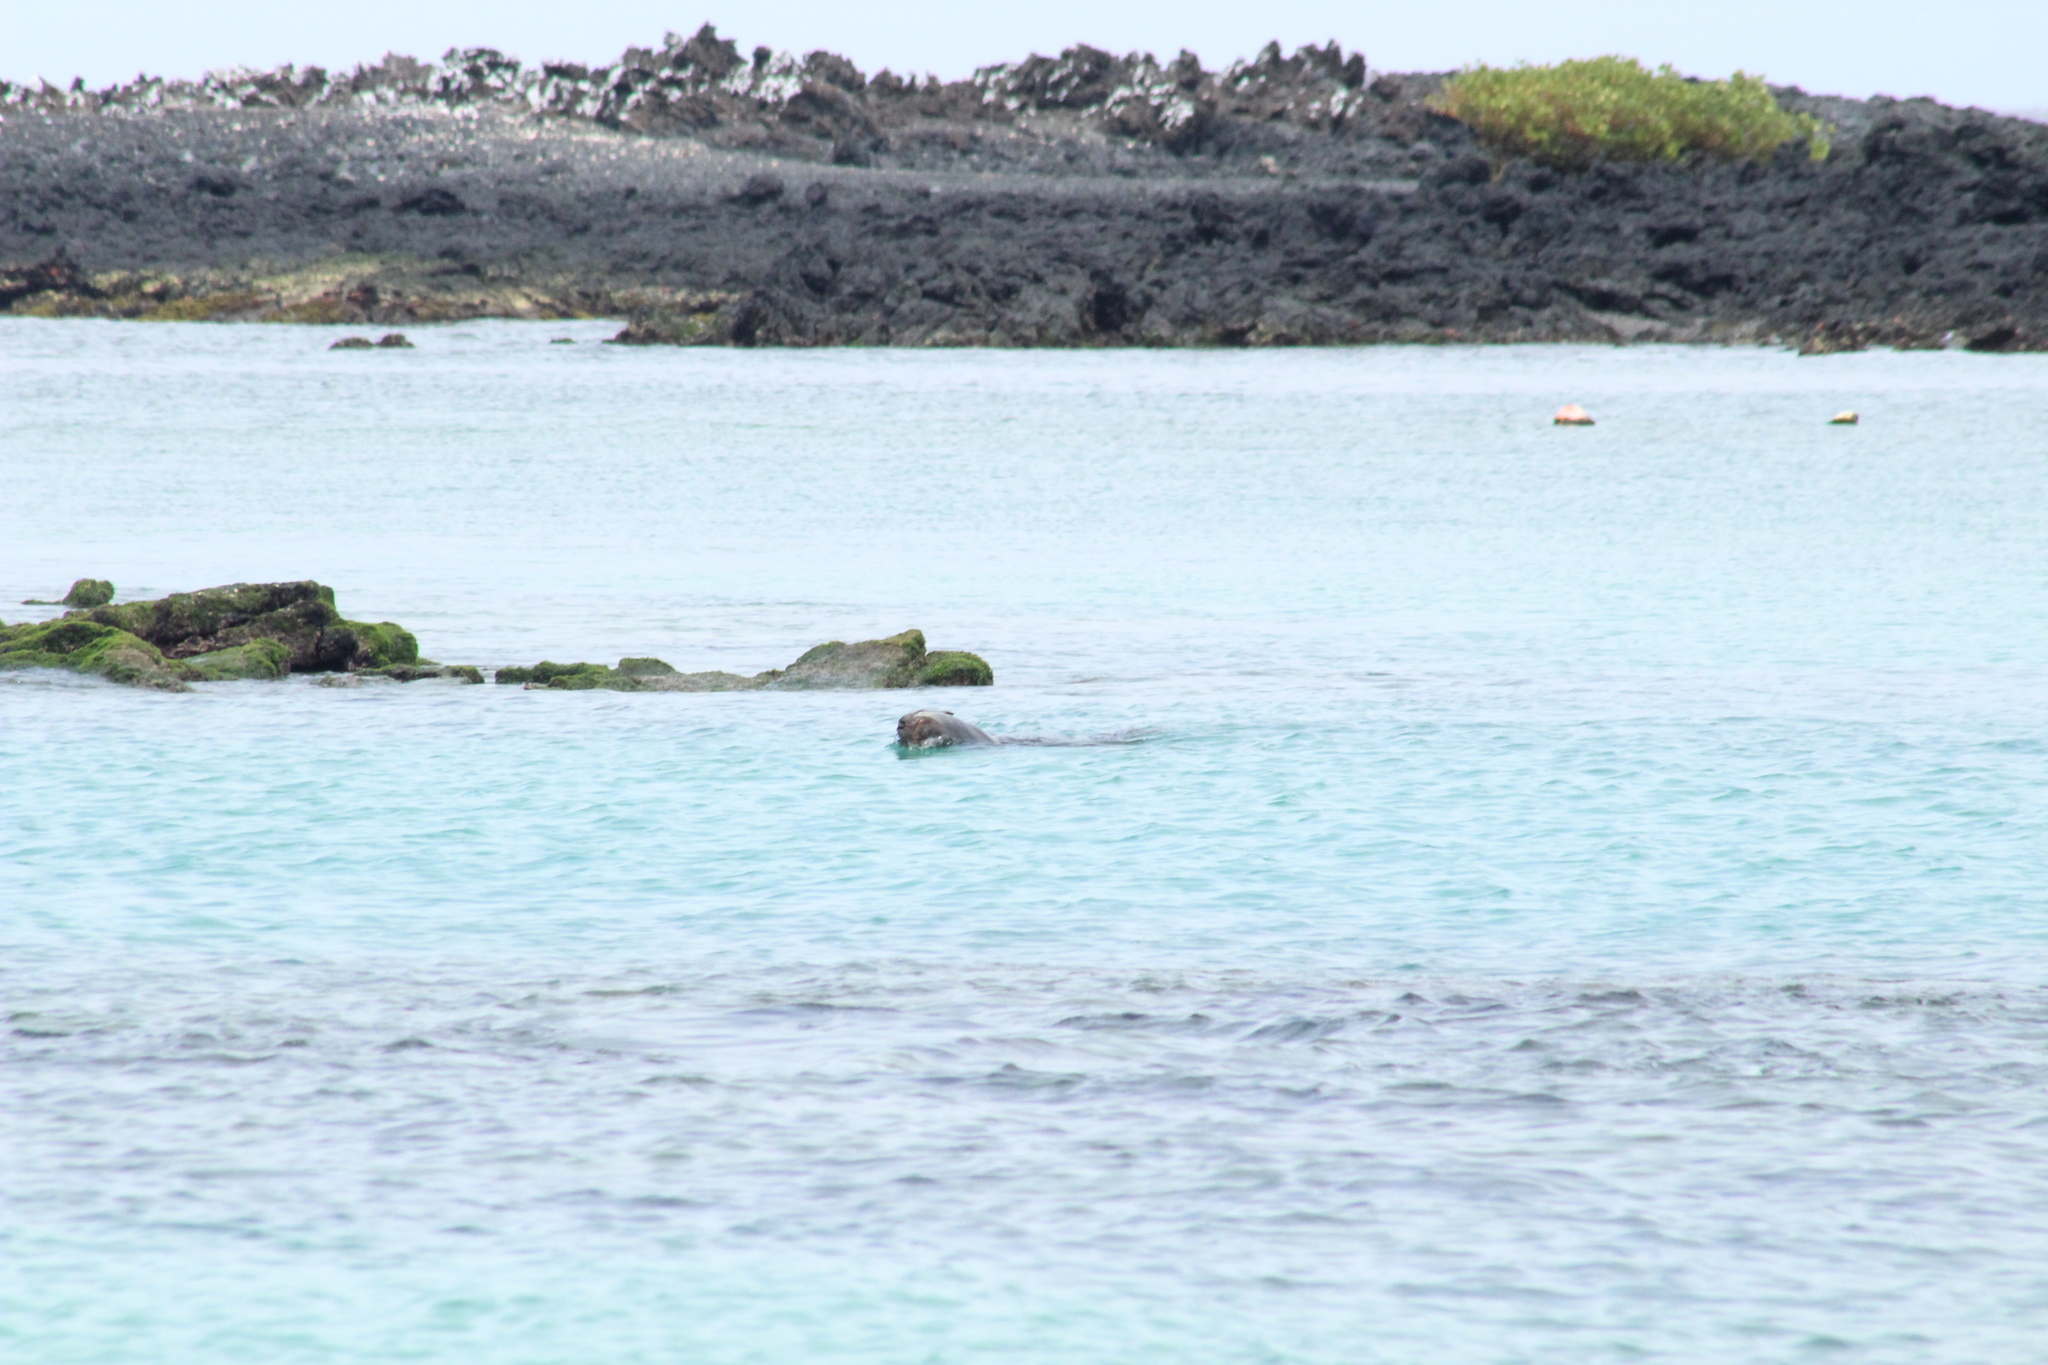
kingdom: Animalia
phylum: Chordata
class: Mammalia
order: Carnivora
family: Otariidae
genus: Zalophus
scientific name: Zalophus wollebaeki
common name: Galapagos sea lion
